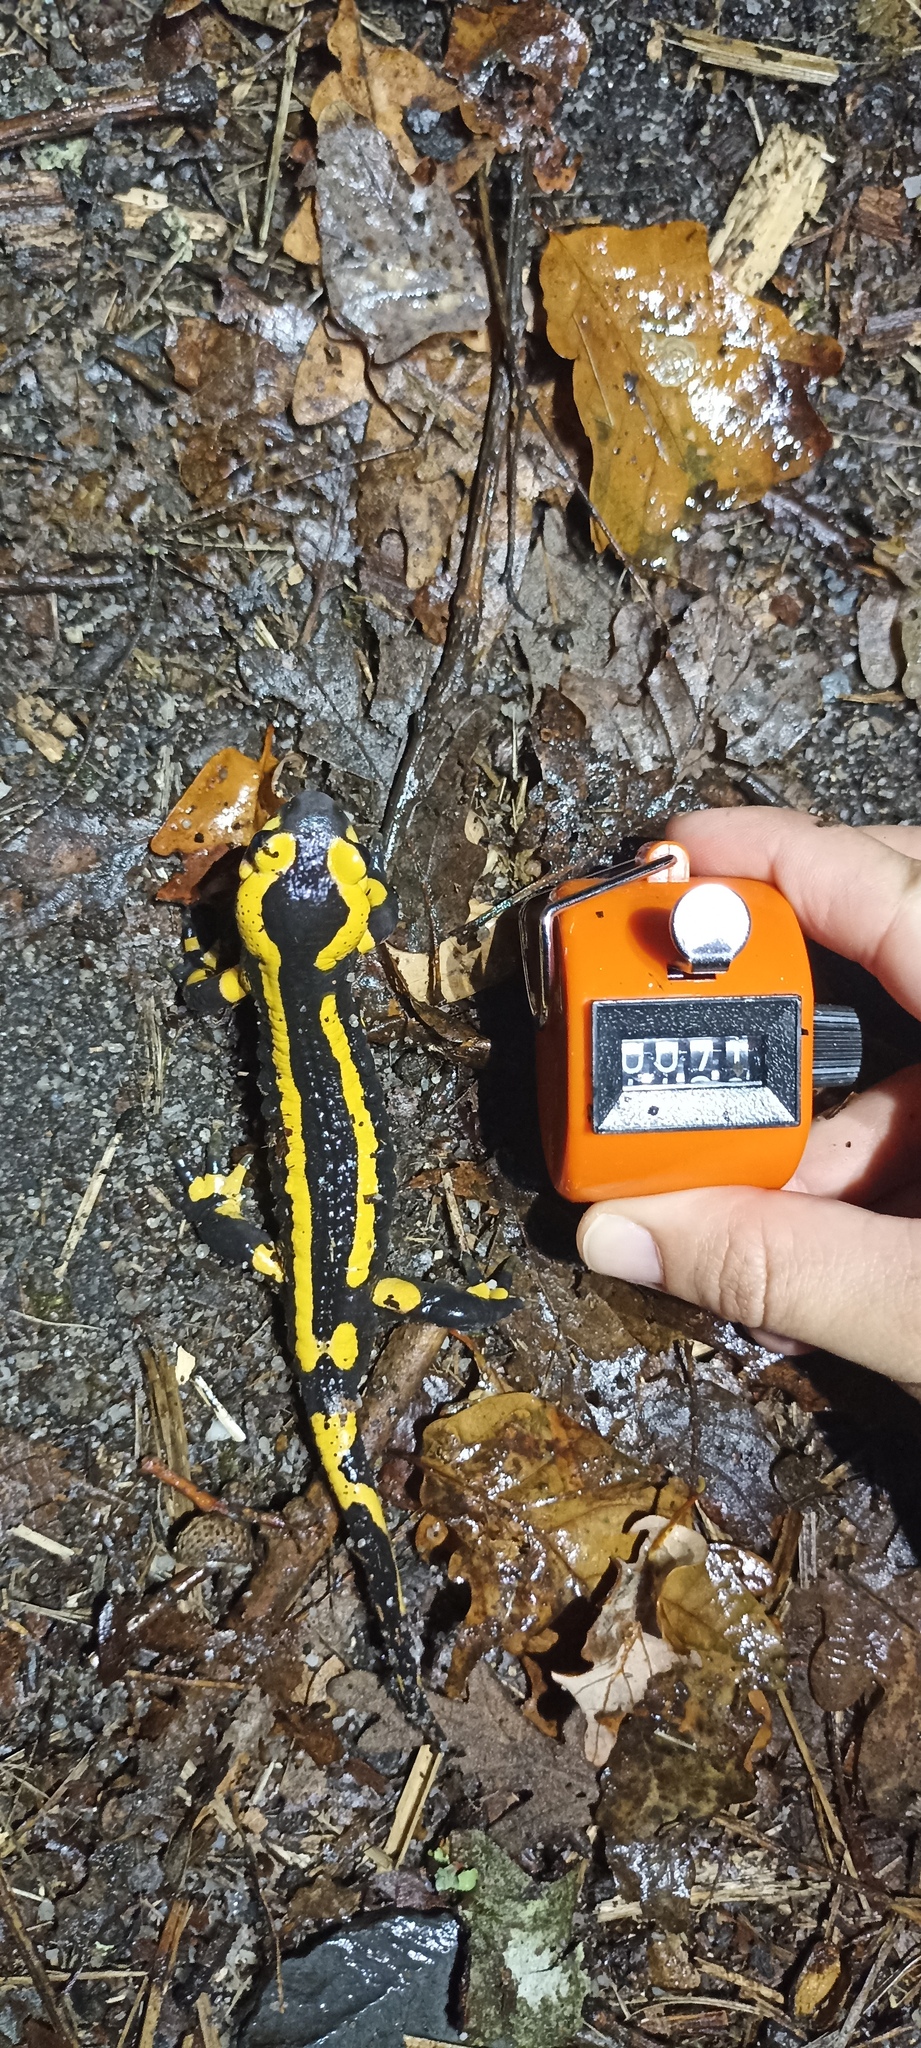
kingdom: Animalia
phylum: Chordata
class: Amphibia
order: Caudata
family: Salamandridae
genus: Salamandra
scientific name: Salamandra salamandra
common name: Fire salamander
